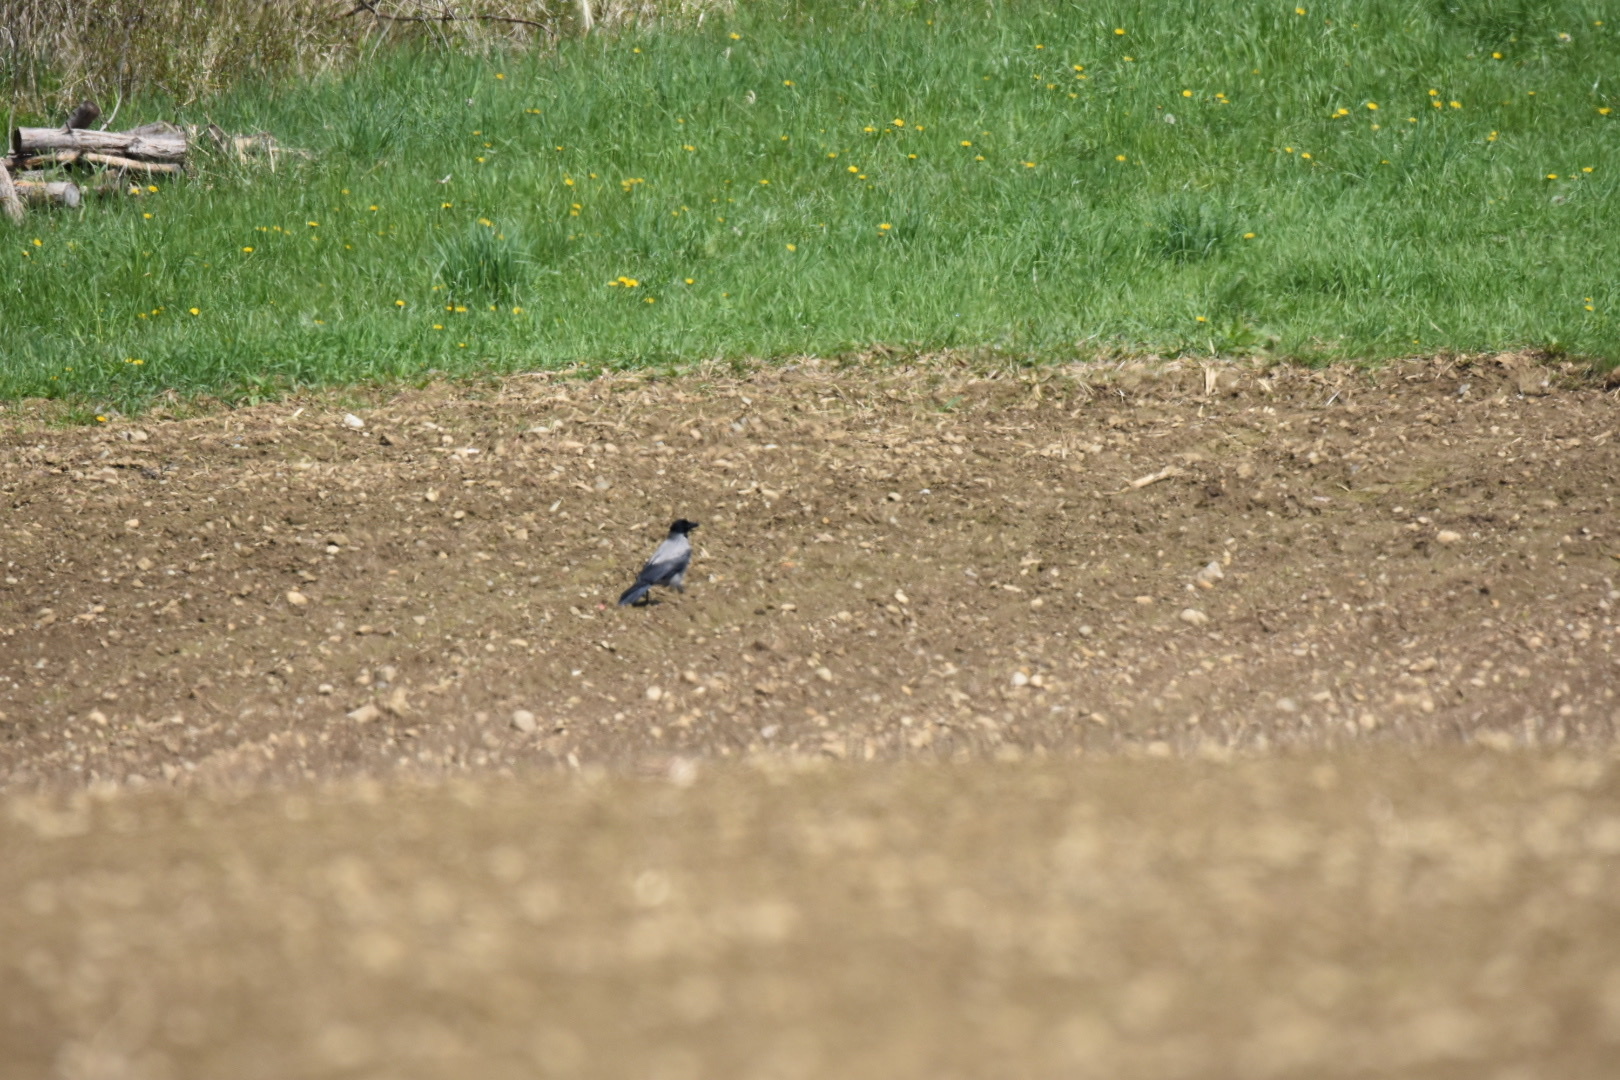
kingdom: Animalia
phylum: Chordata
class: Aves
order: Passeriformes
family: Corvidae
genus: Corvus
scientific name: Corvus cornix
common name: Hooded crow
